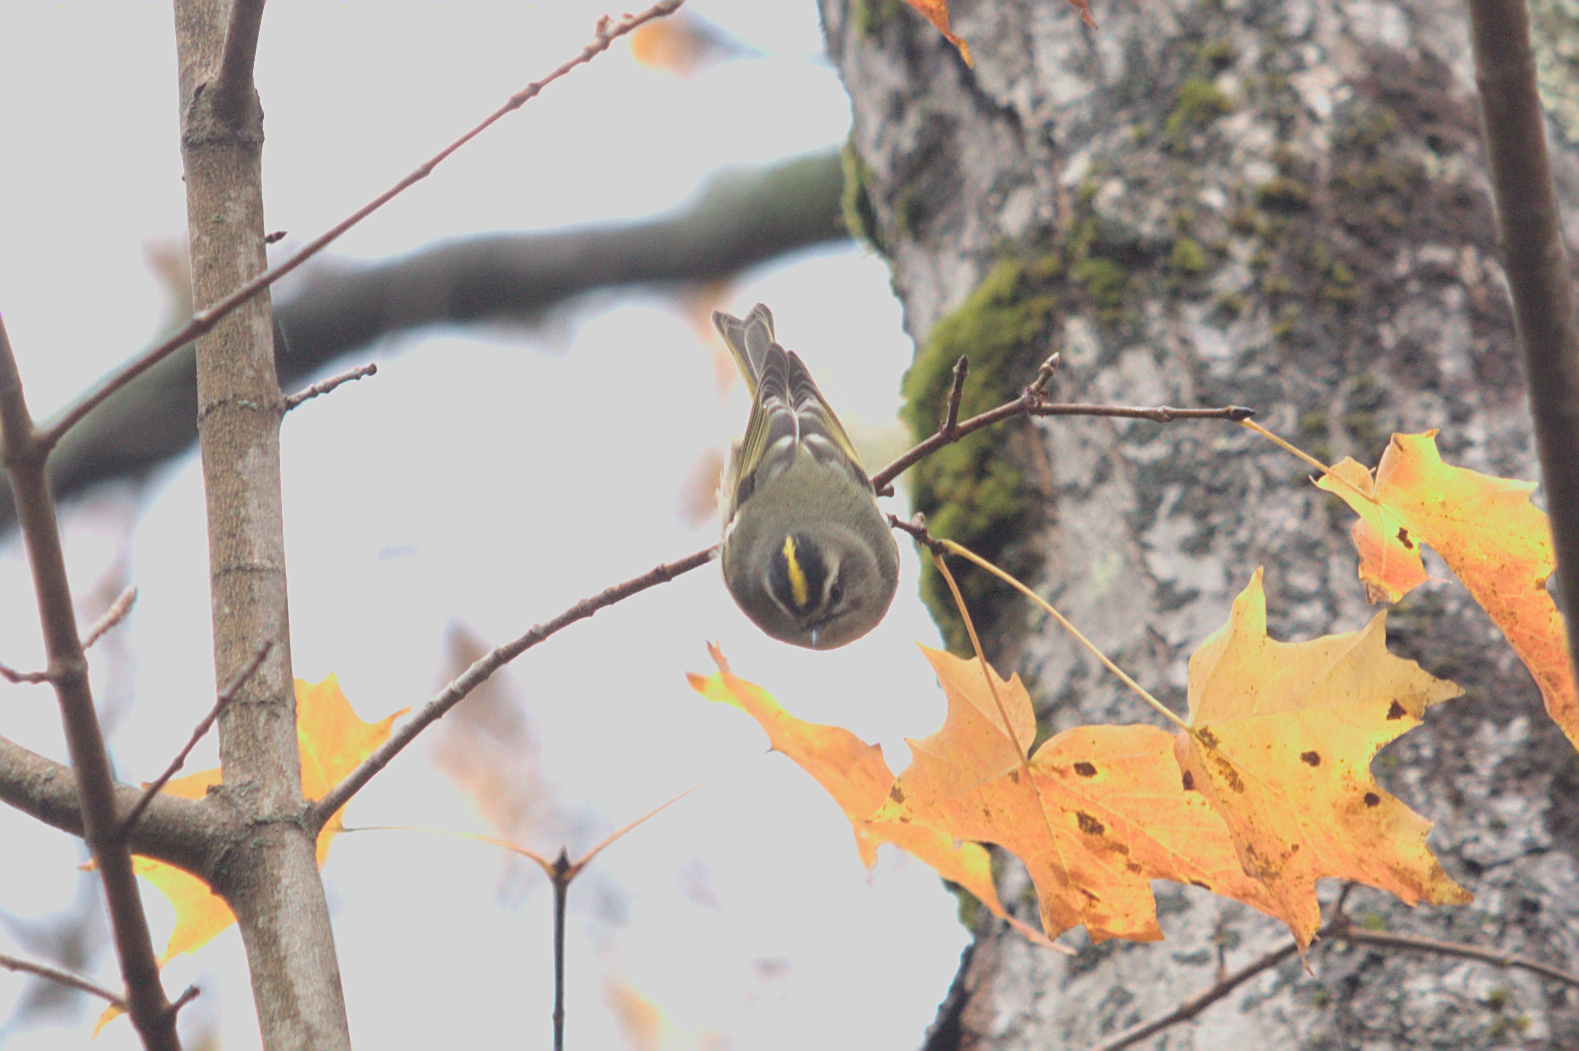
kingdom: Animalia
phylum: Chordata
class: Aves
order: Passeriformes
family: Regulidae
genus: Regulus
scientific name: Regulus satrapa
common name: Golden-crowned kinglet
